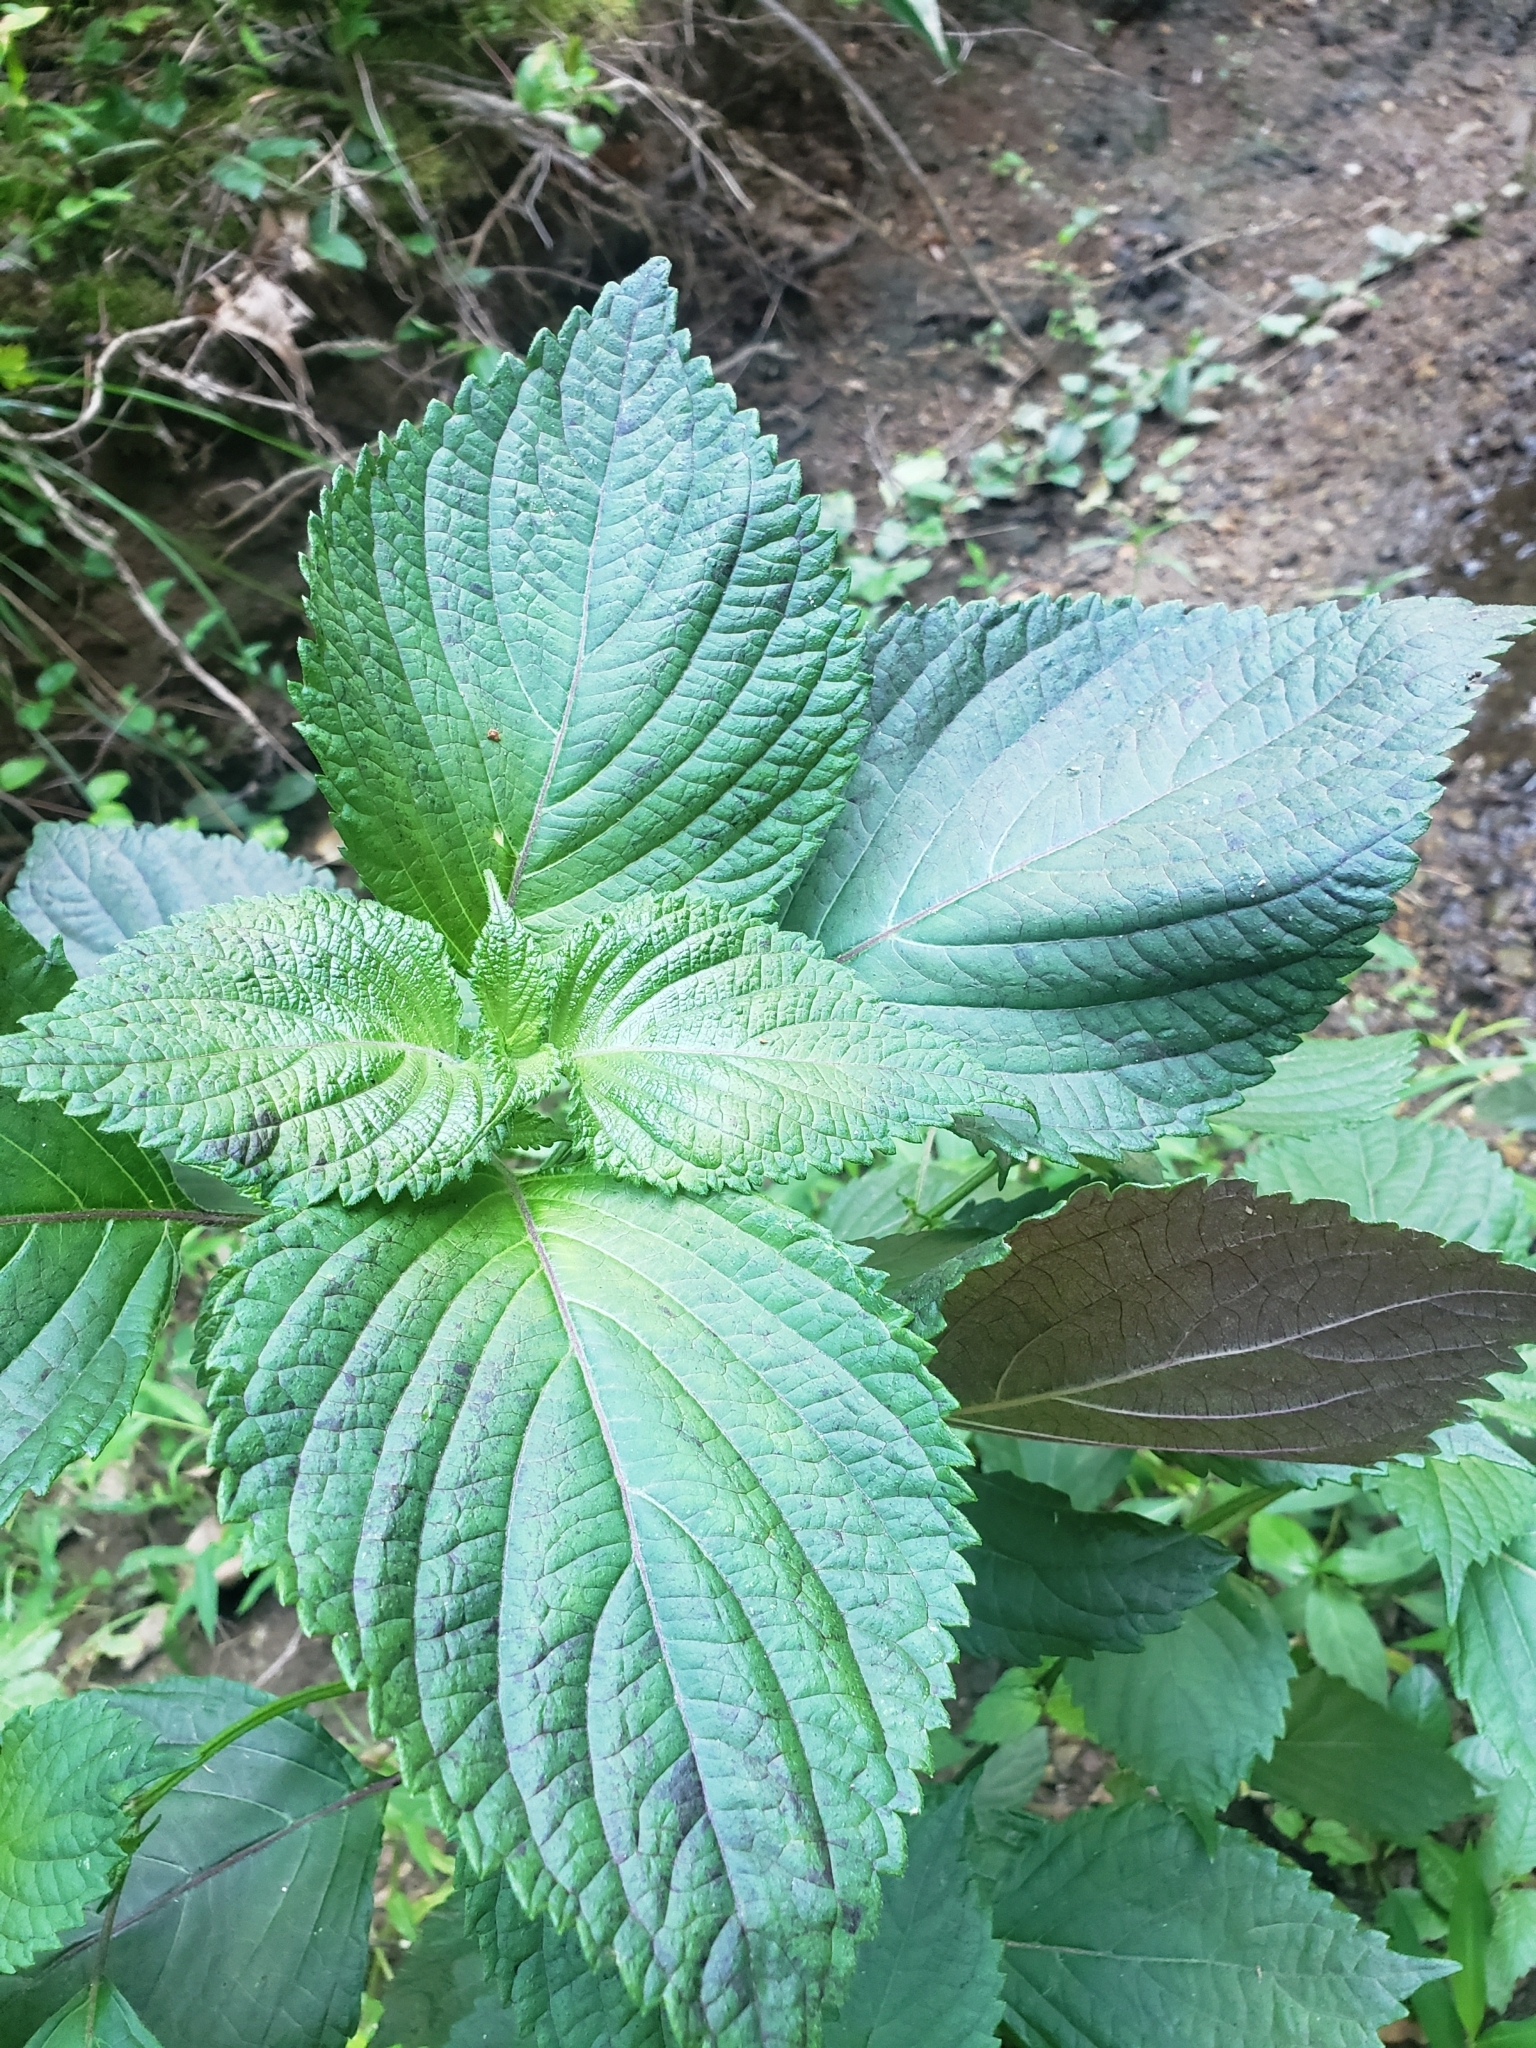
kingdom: Plantae
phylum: Tracheophyta
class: Magnoliopsida
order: Lamiales
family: Lamiaceae
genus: Perilla
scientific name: Perilla frutescens
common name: Perilla
